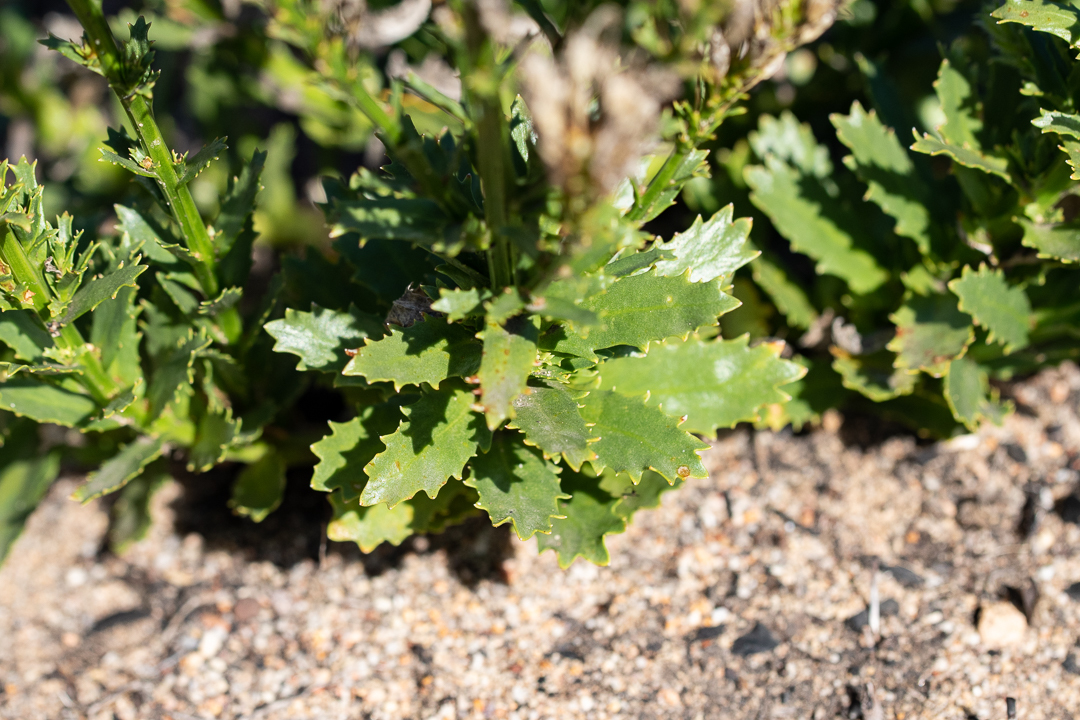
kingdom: Plantae
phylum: Tracheophyta
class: Magnoliopsida
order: Asterales
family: Campanulaceae
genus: Lobelia
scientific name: Lobelia comosa
